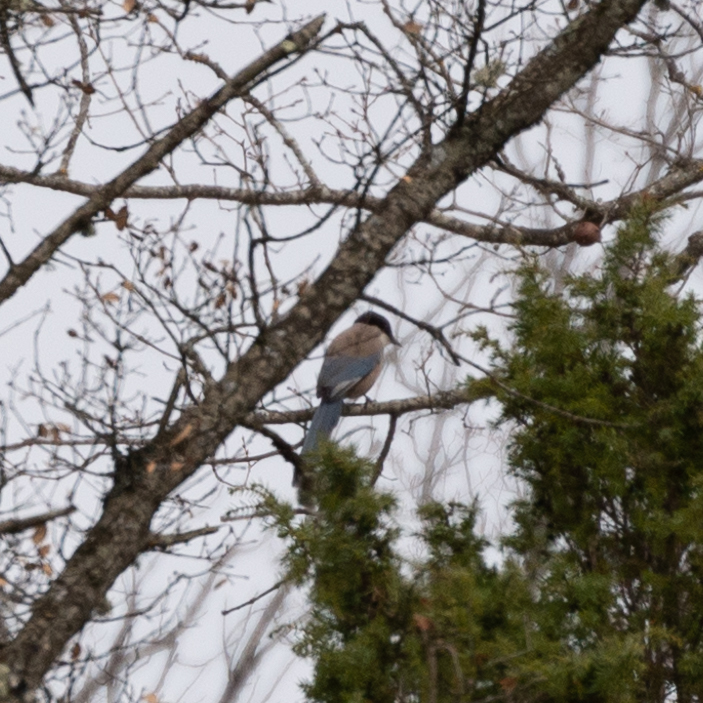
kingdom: Animalia
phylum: Chordata
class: Aves
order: Passeriformes
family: Corvidae
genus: Cyanopica
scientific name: Cyanopica cooki
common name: Iberian magpie
